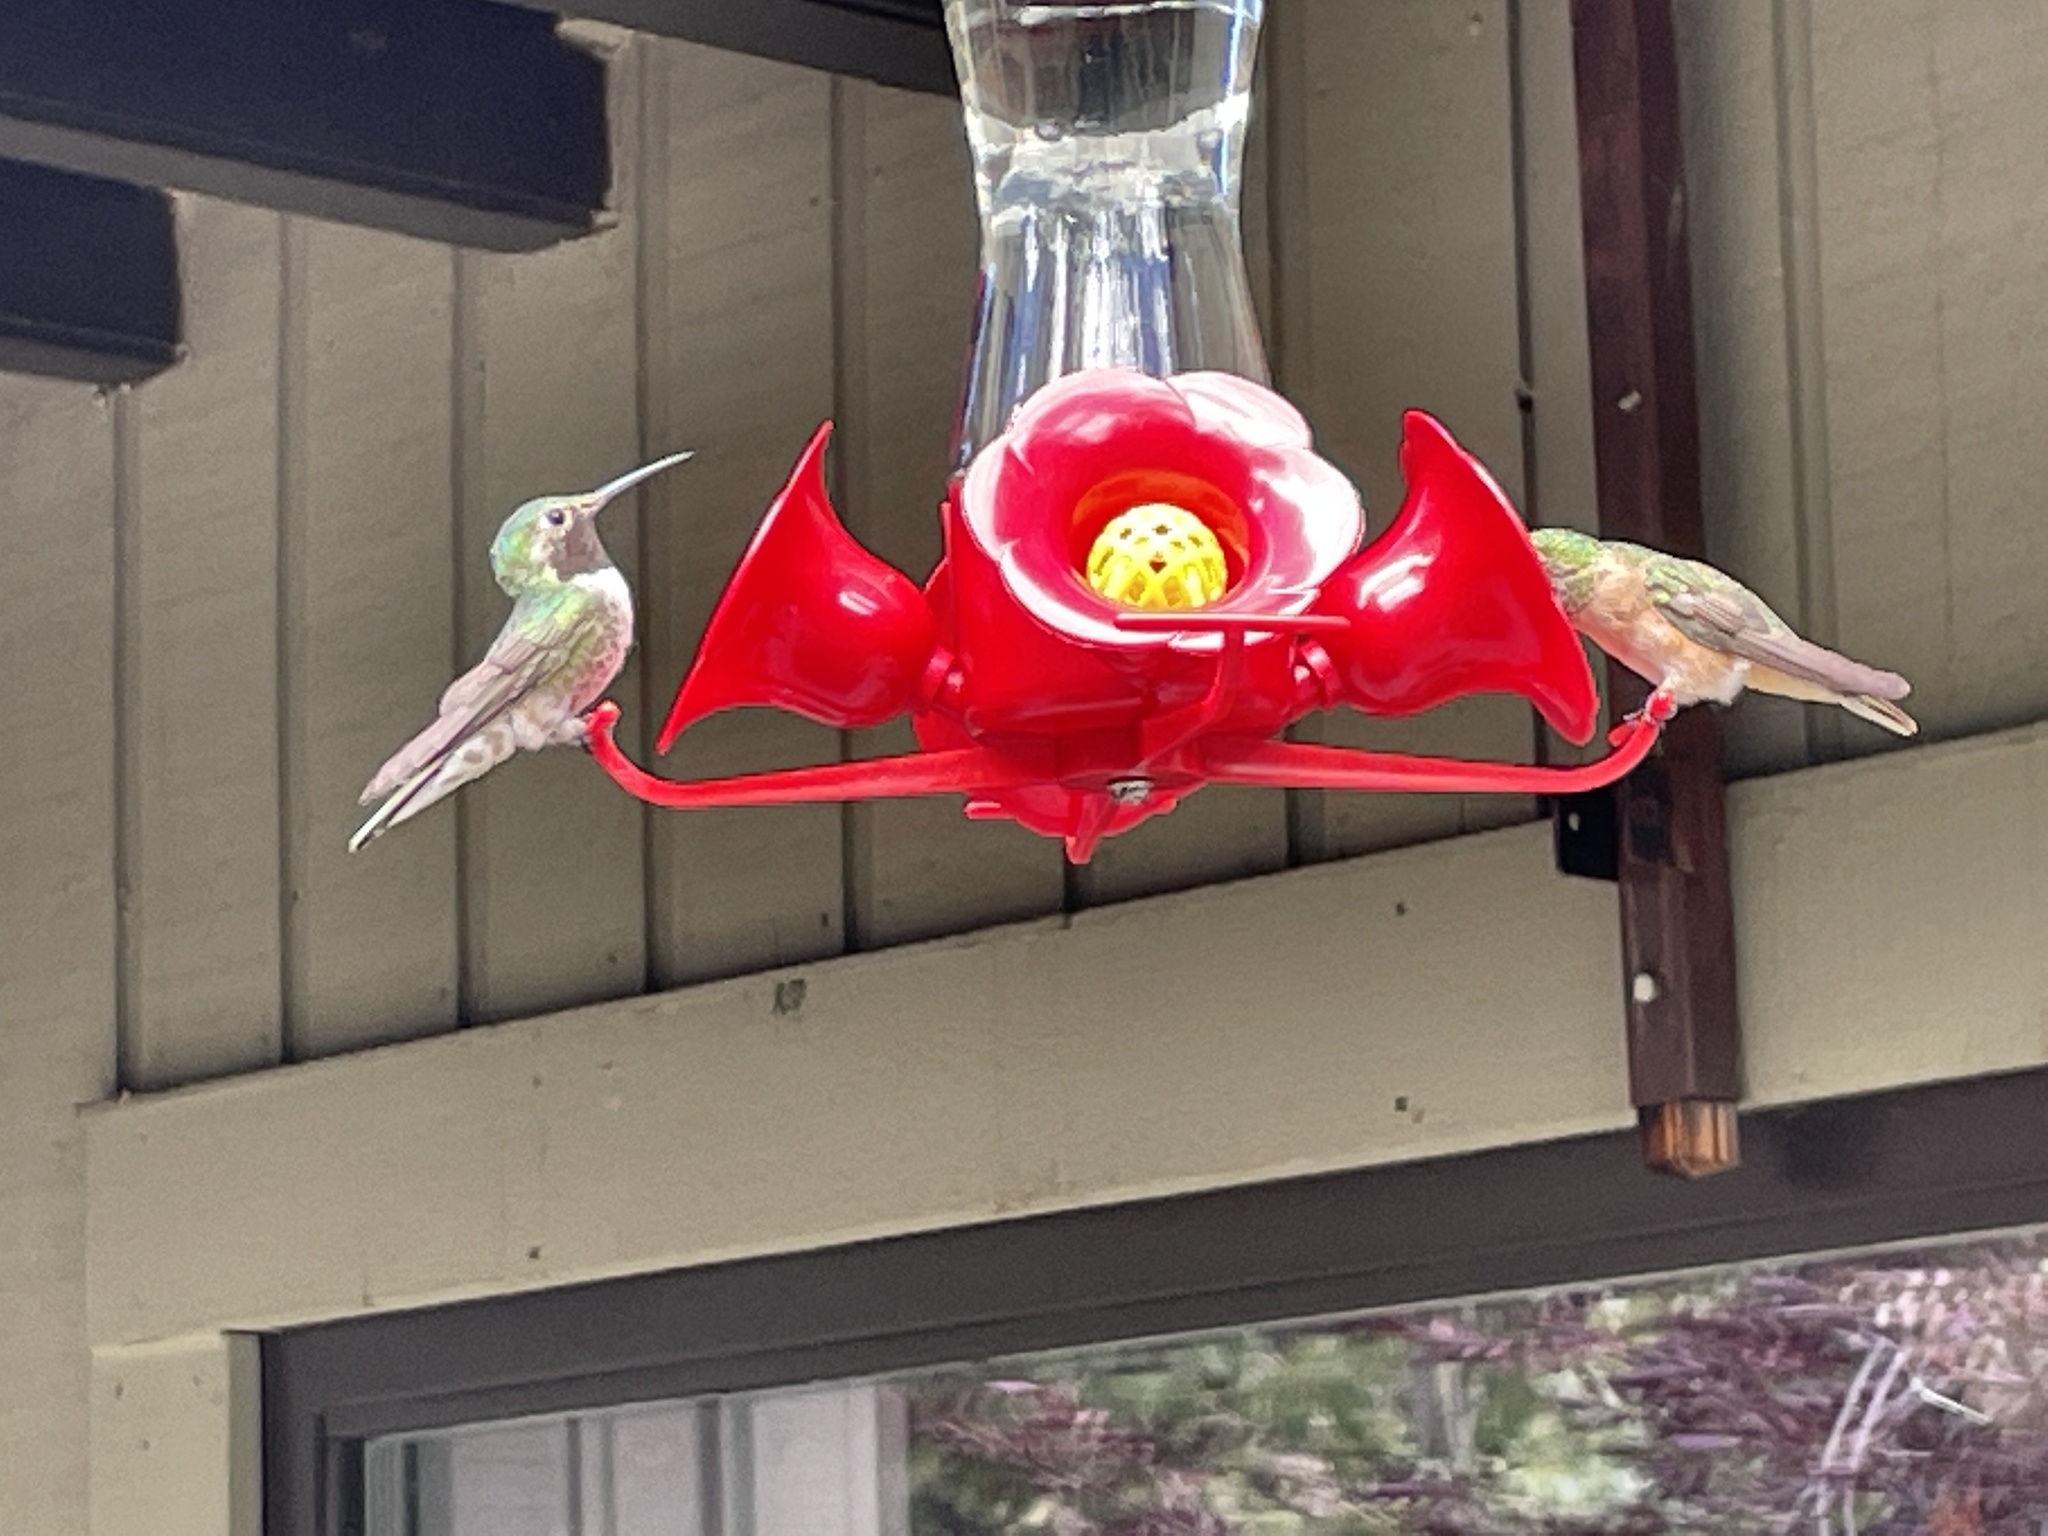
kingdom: Animalia
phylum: Chordata
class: Aves
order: Apodiformes
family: Trochilidae
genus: Selasphorus
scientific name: Selasphorus platycercus
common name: Broad-tailed hummingbird
